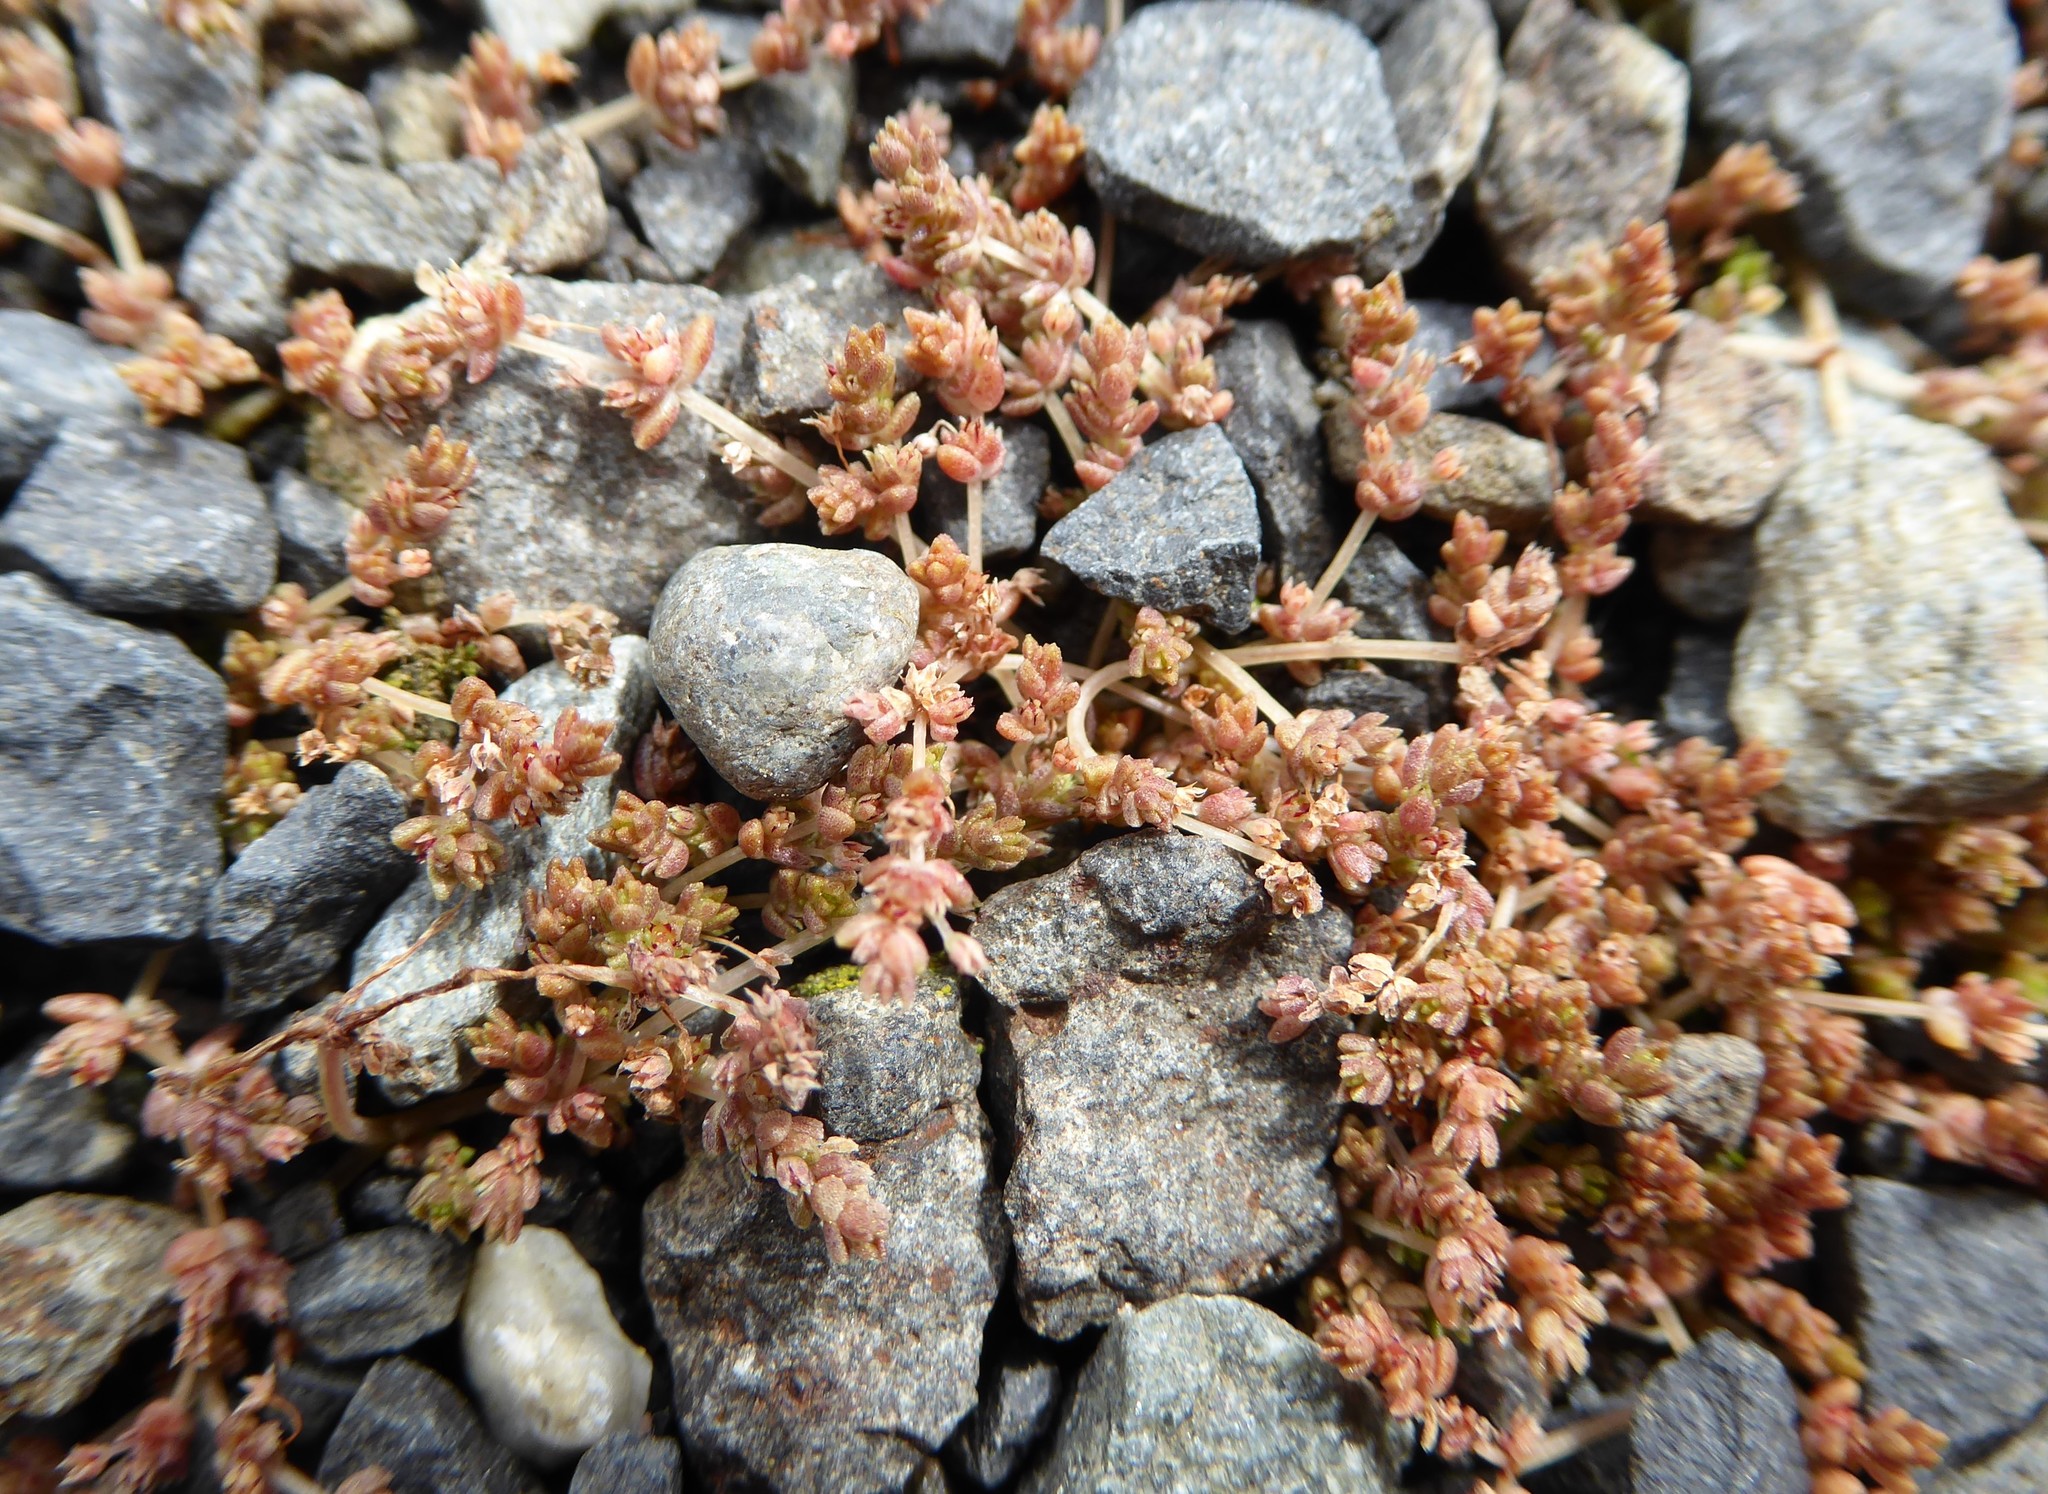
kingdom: Plantae
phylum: Tracheophyta
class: Magnoliopsida
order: Saxifragales
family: Crassulaceae
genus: Crassula
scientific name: Crassula mataikona
